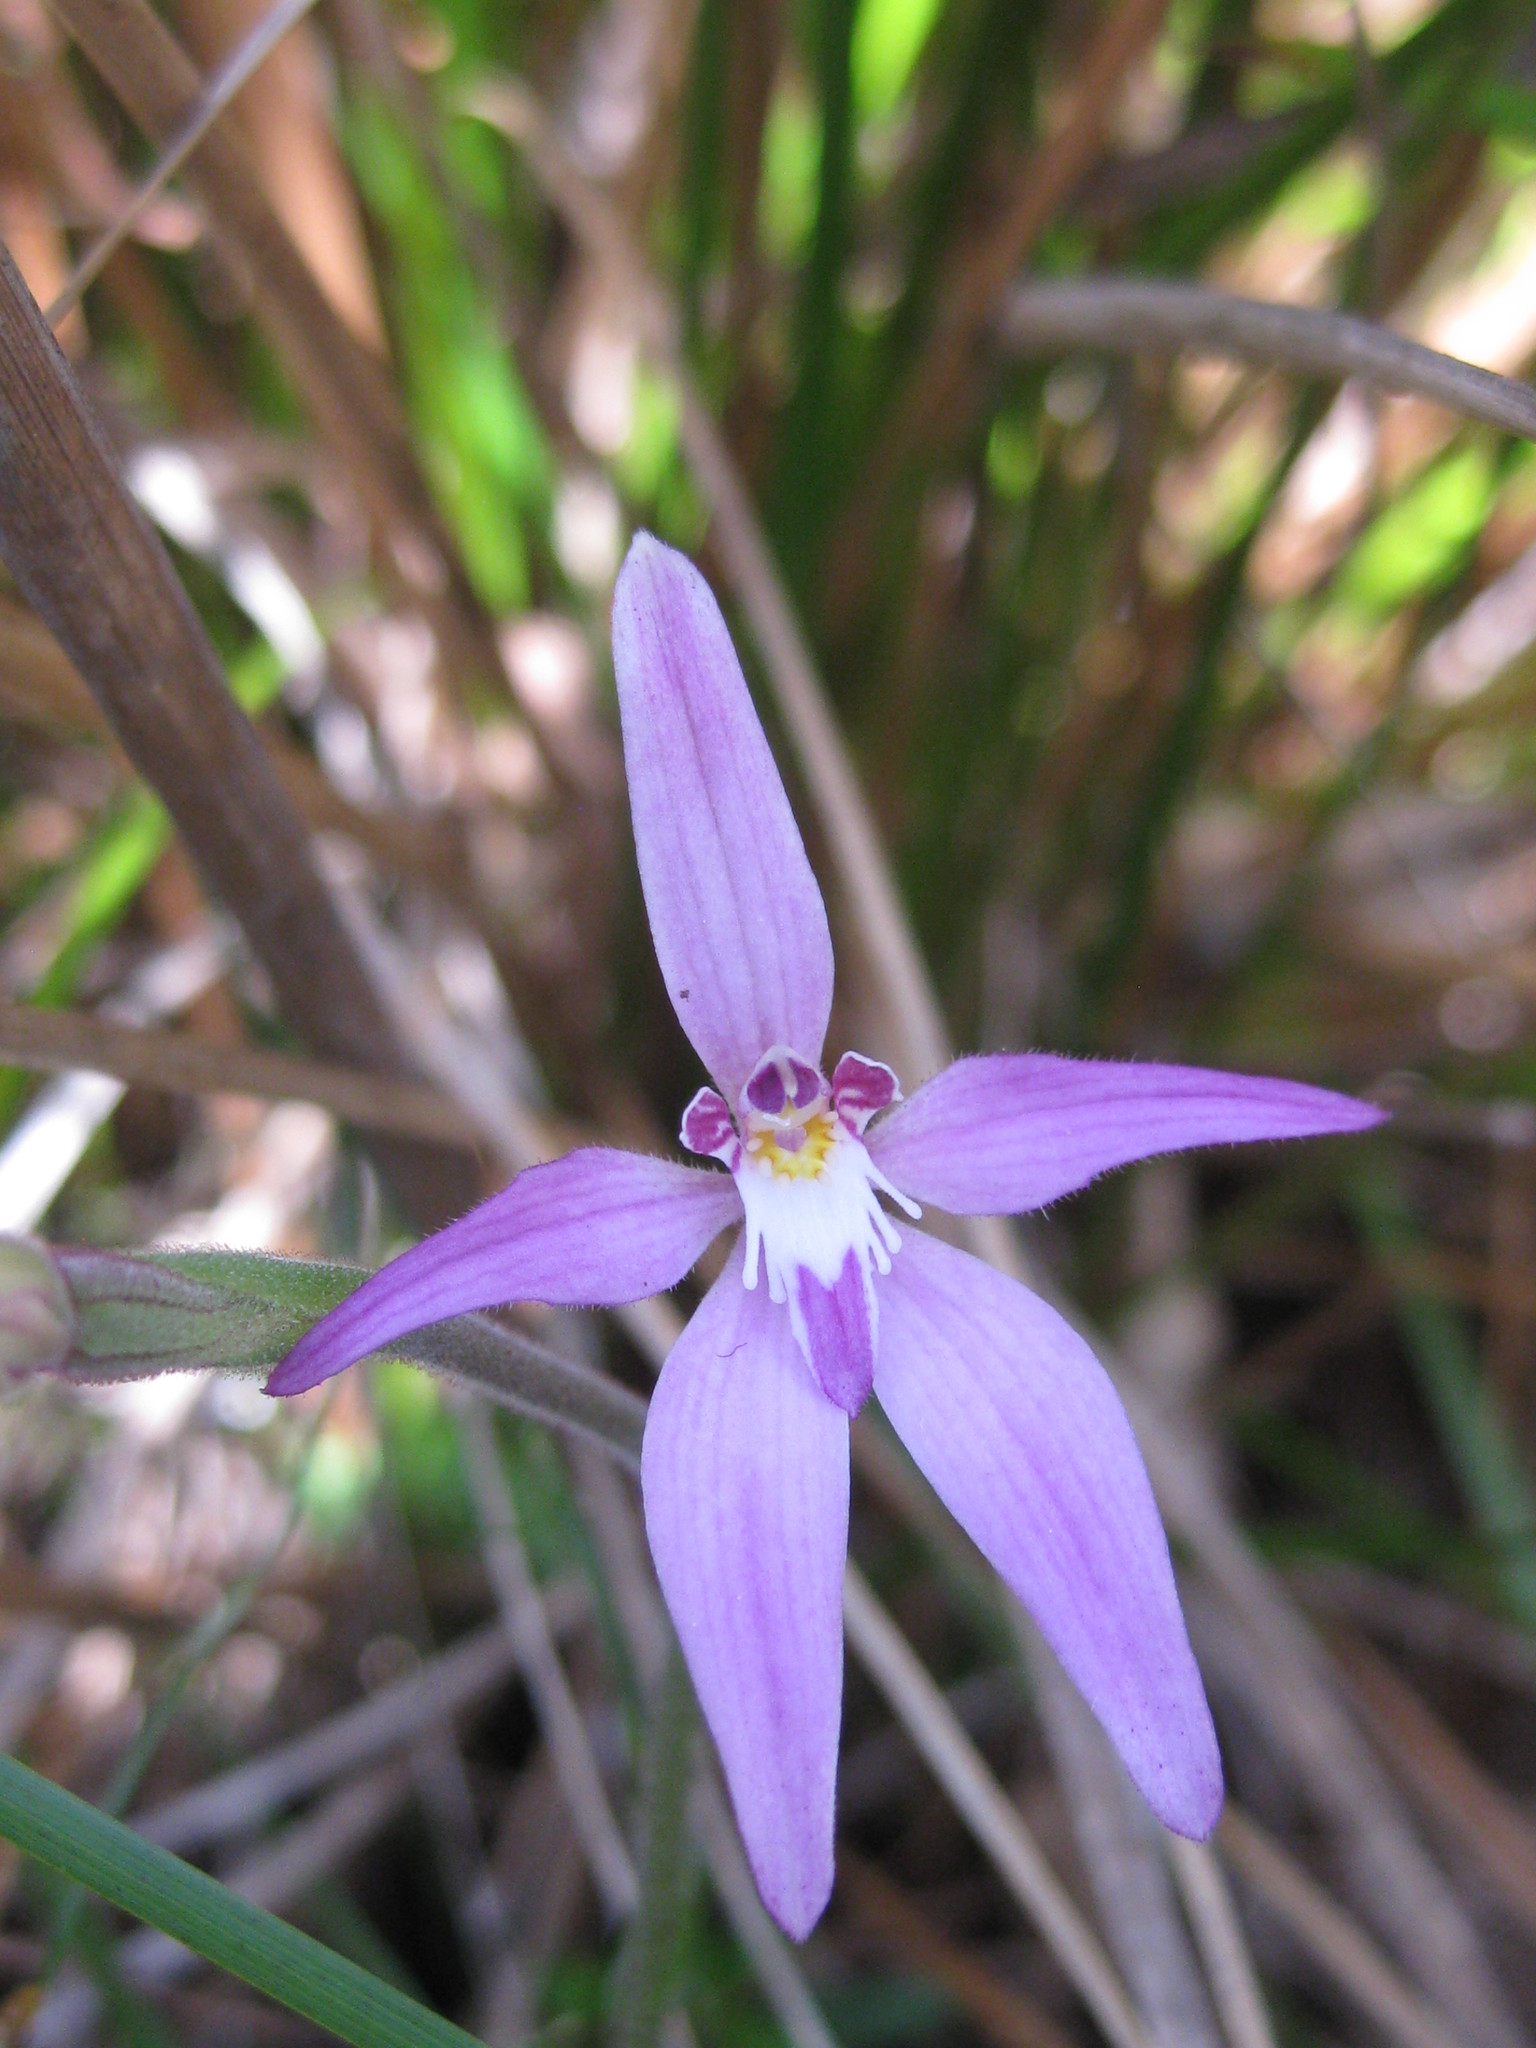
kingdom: Plantae
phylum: Tracheophyta
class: Liliopsida
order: Asparagales
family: Orchidaceae
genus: Caladenia
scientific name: Caladenia latifolia
